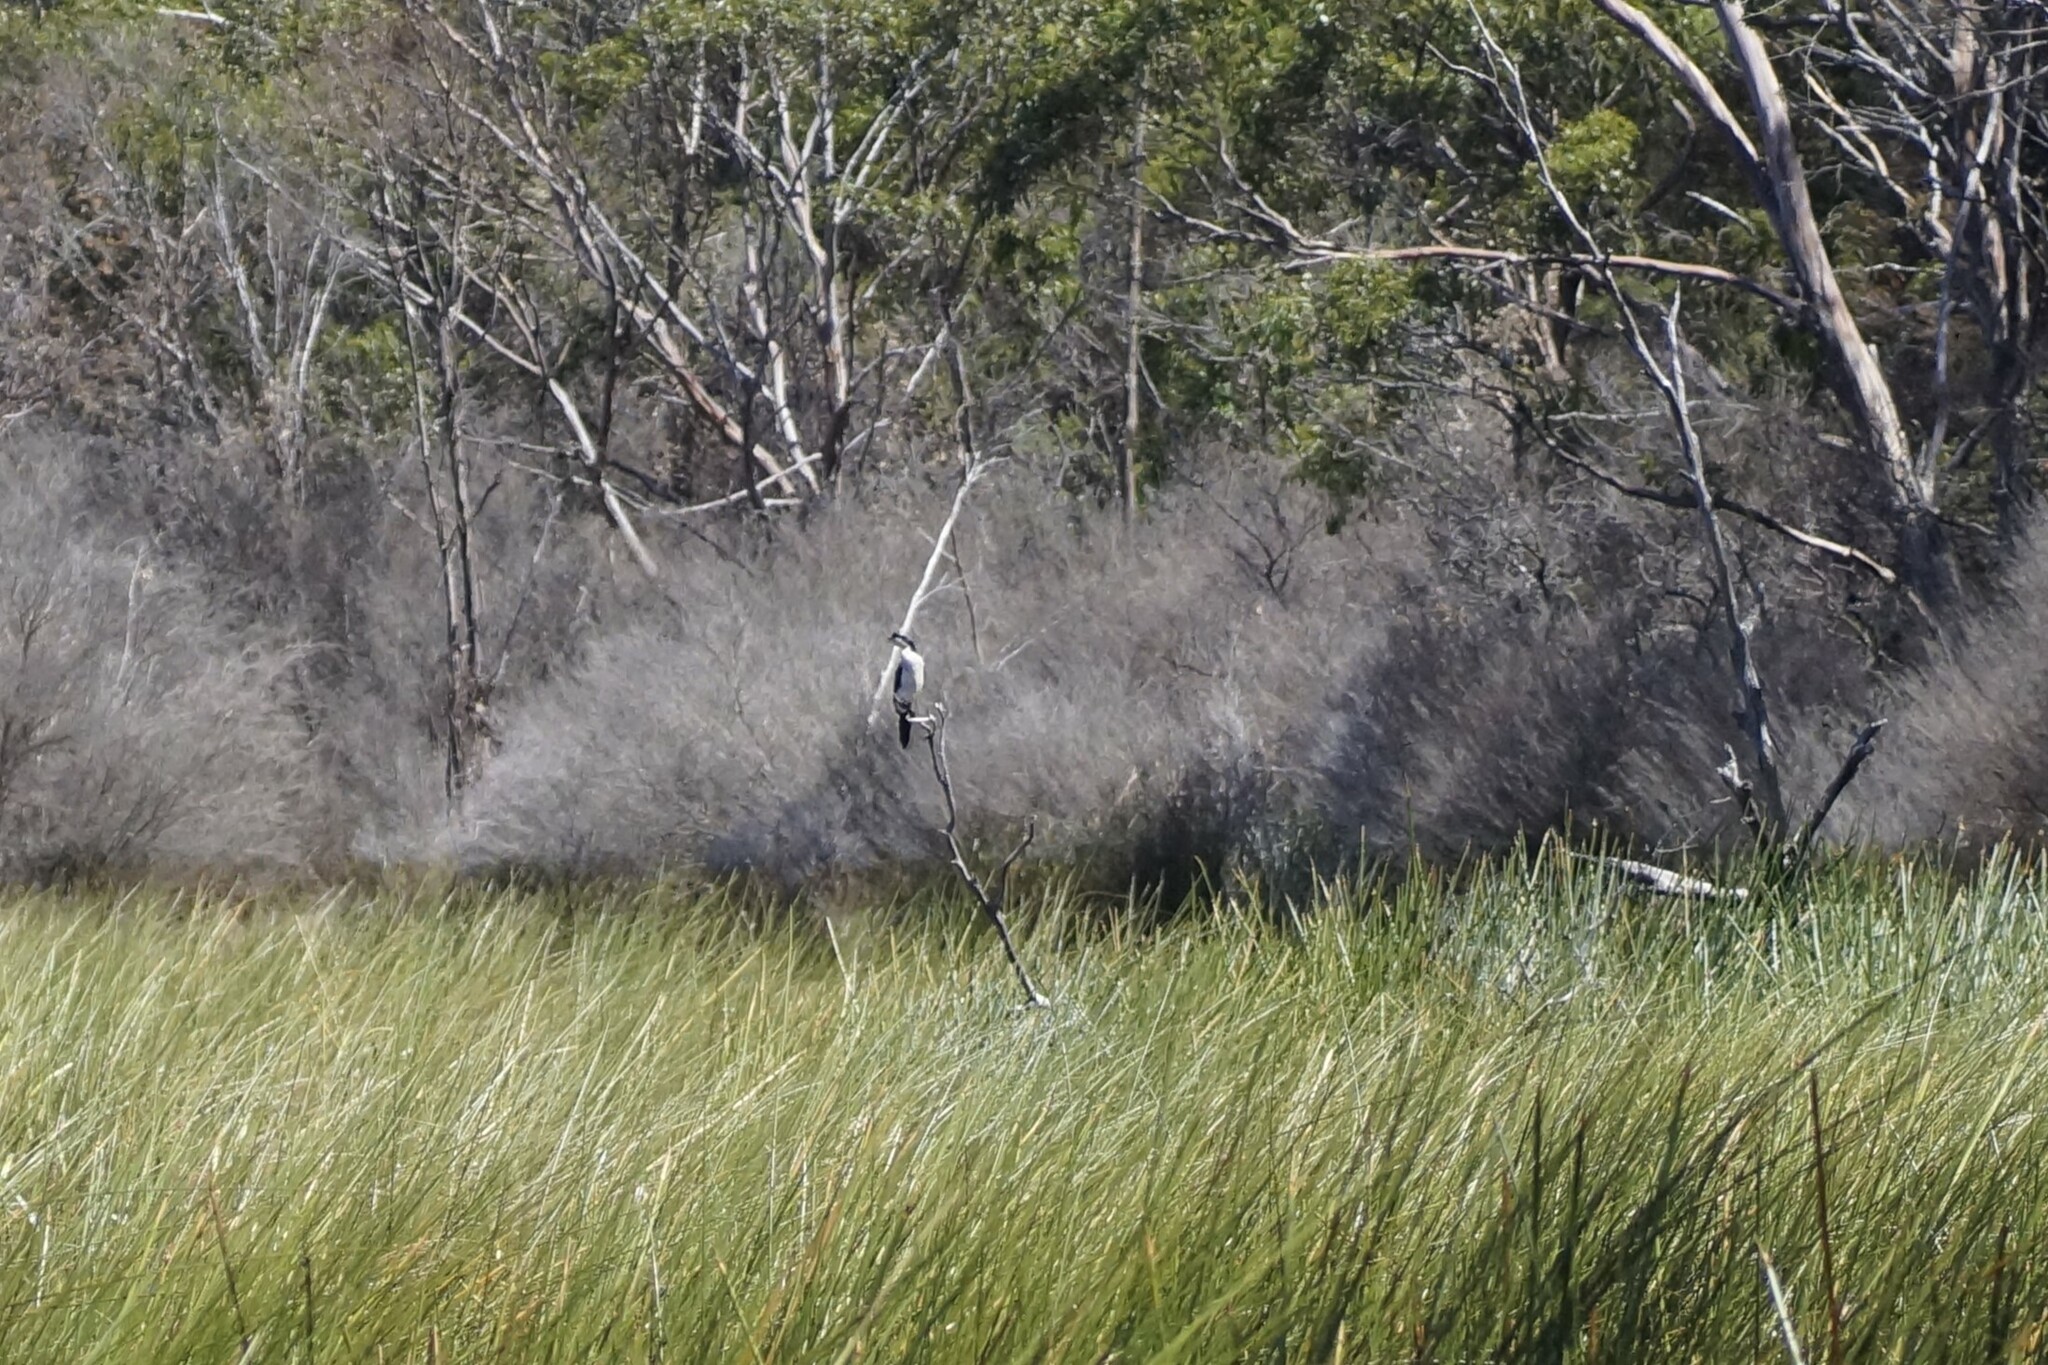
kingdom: Animalia
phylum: Chordata
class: Aves
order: Suliformes
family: Phalacrocoracidae
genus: Microcarbo
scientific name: Microcarbo melanoleucos
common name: Little pied cormorant
